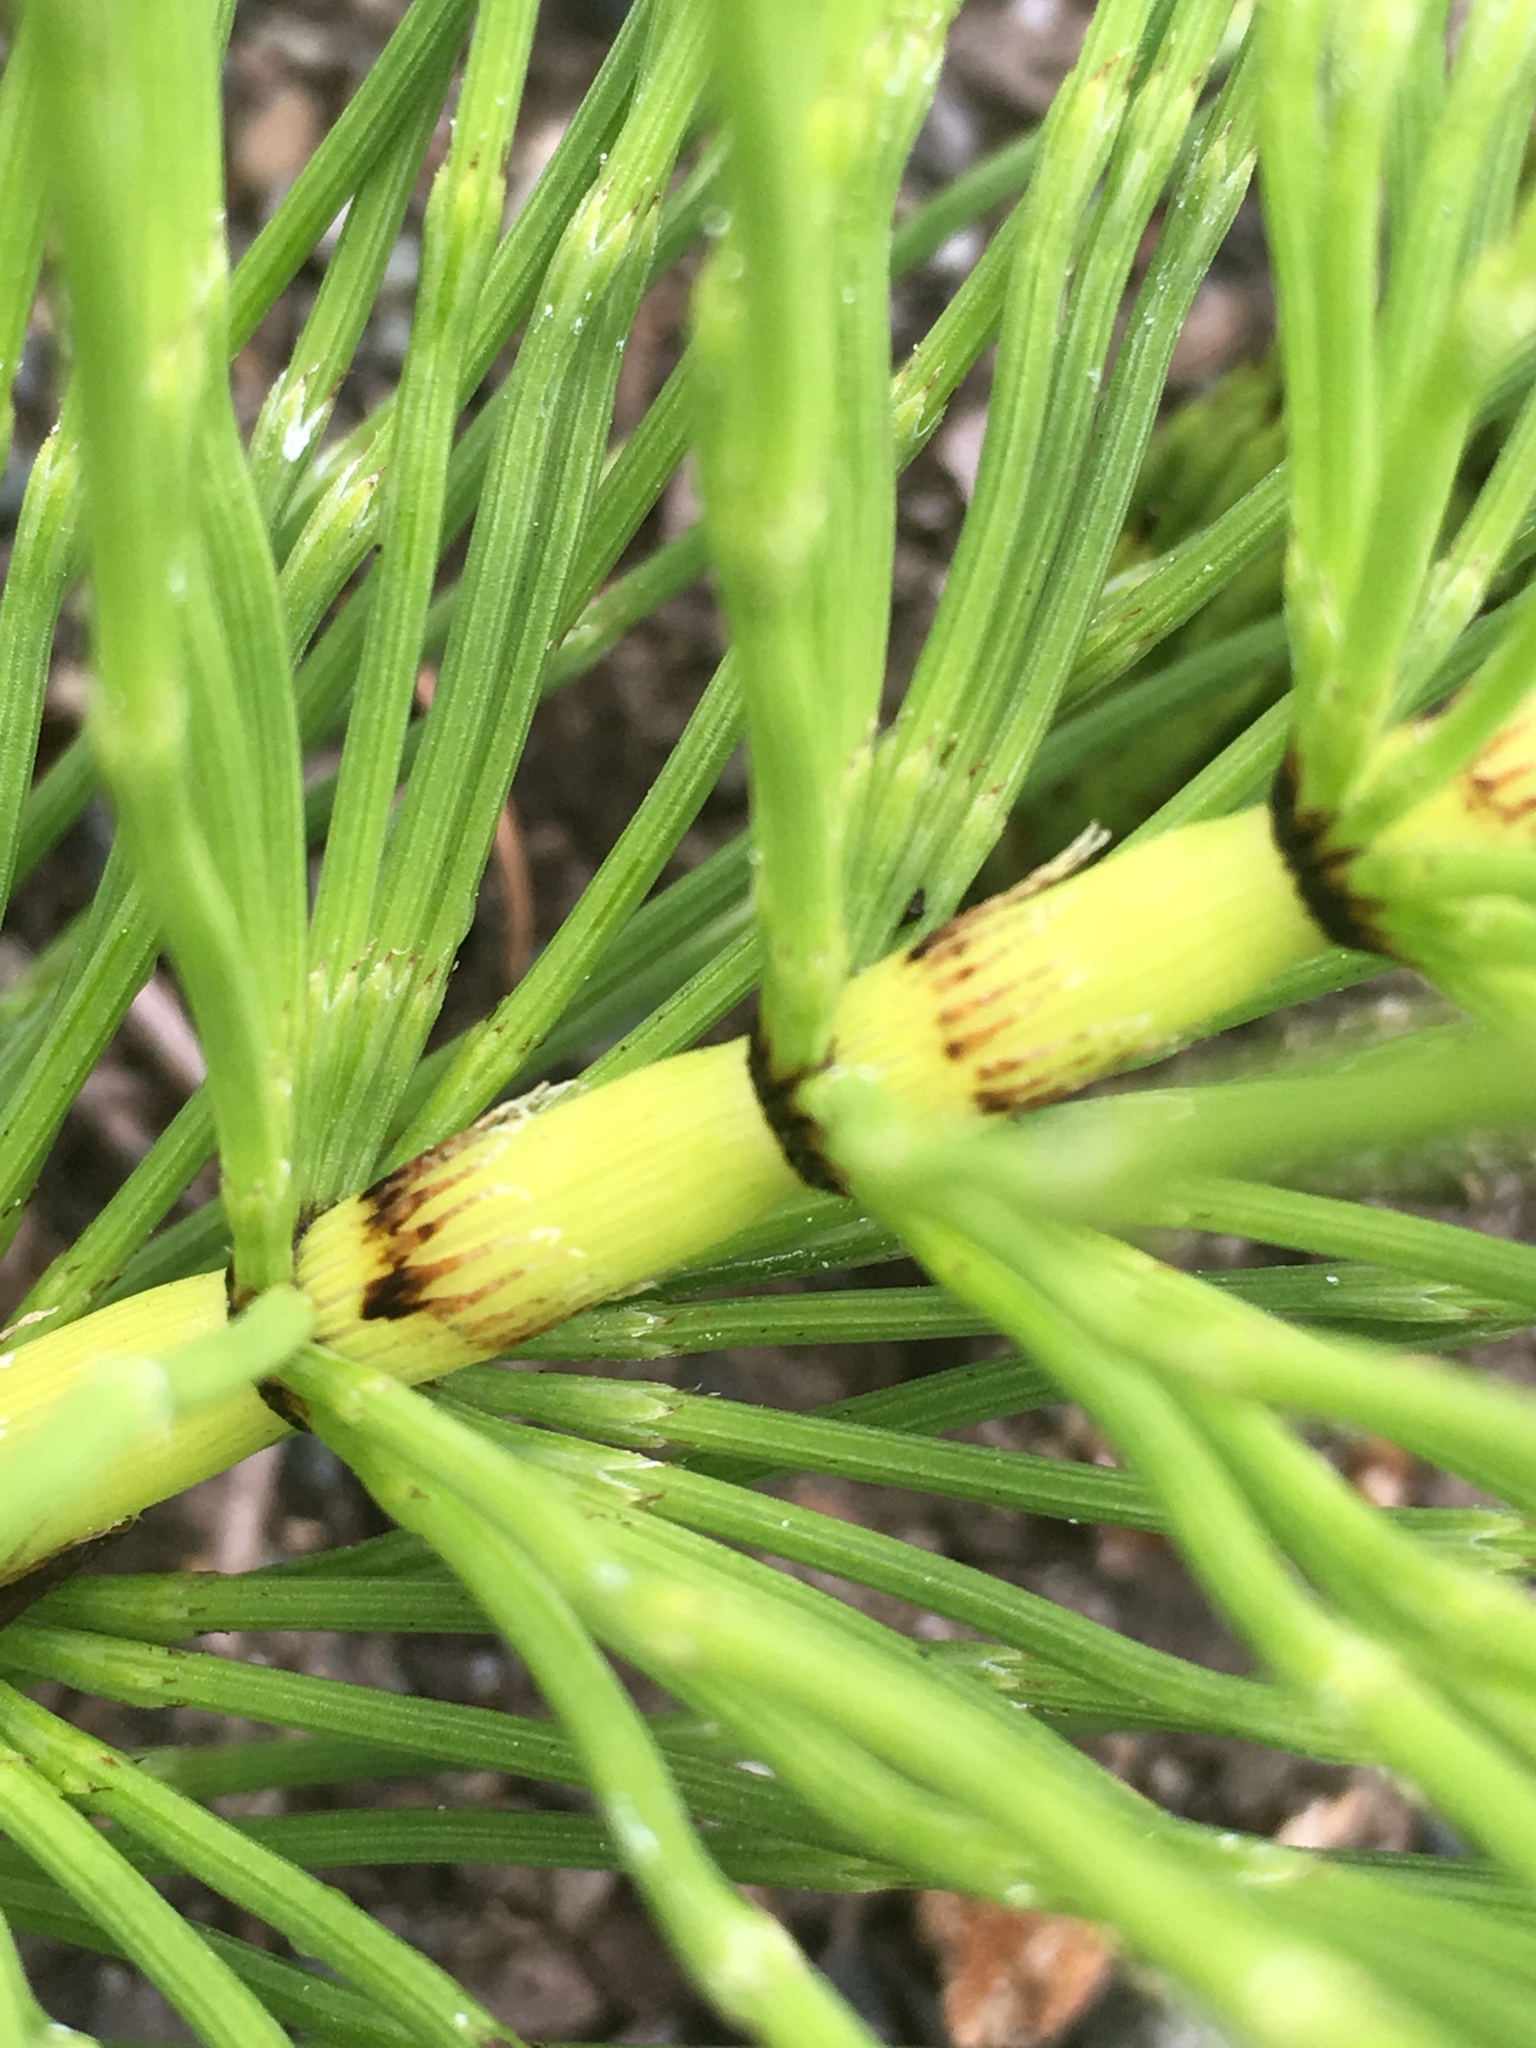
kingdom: Plantae
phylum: Tracheophyta
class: Polypodiopsida
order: Equisetales
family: Equisetaceae
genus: Equisetum
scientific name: Equisetum braunii
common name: Braun's horsetail
